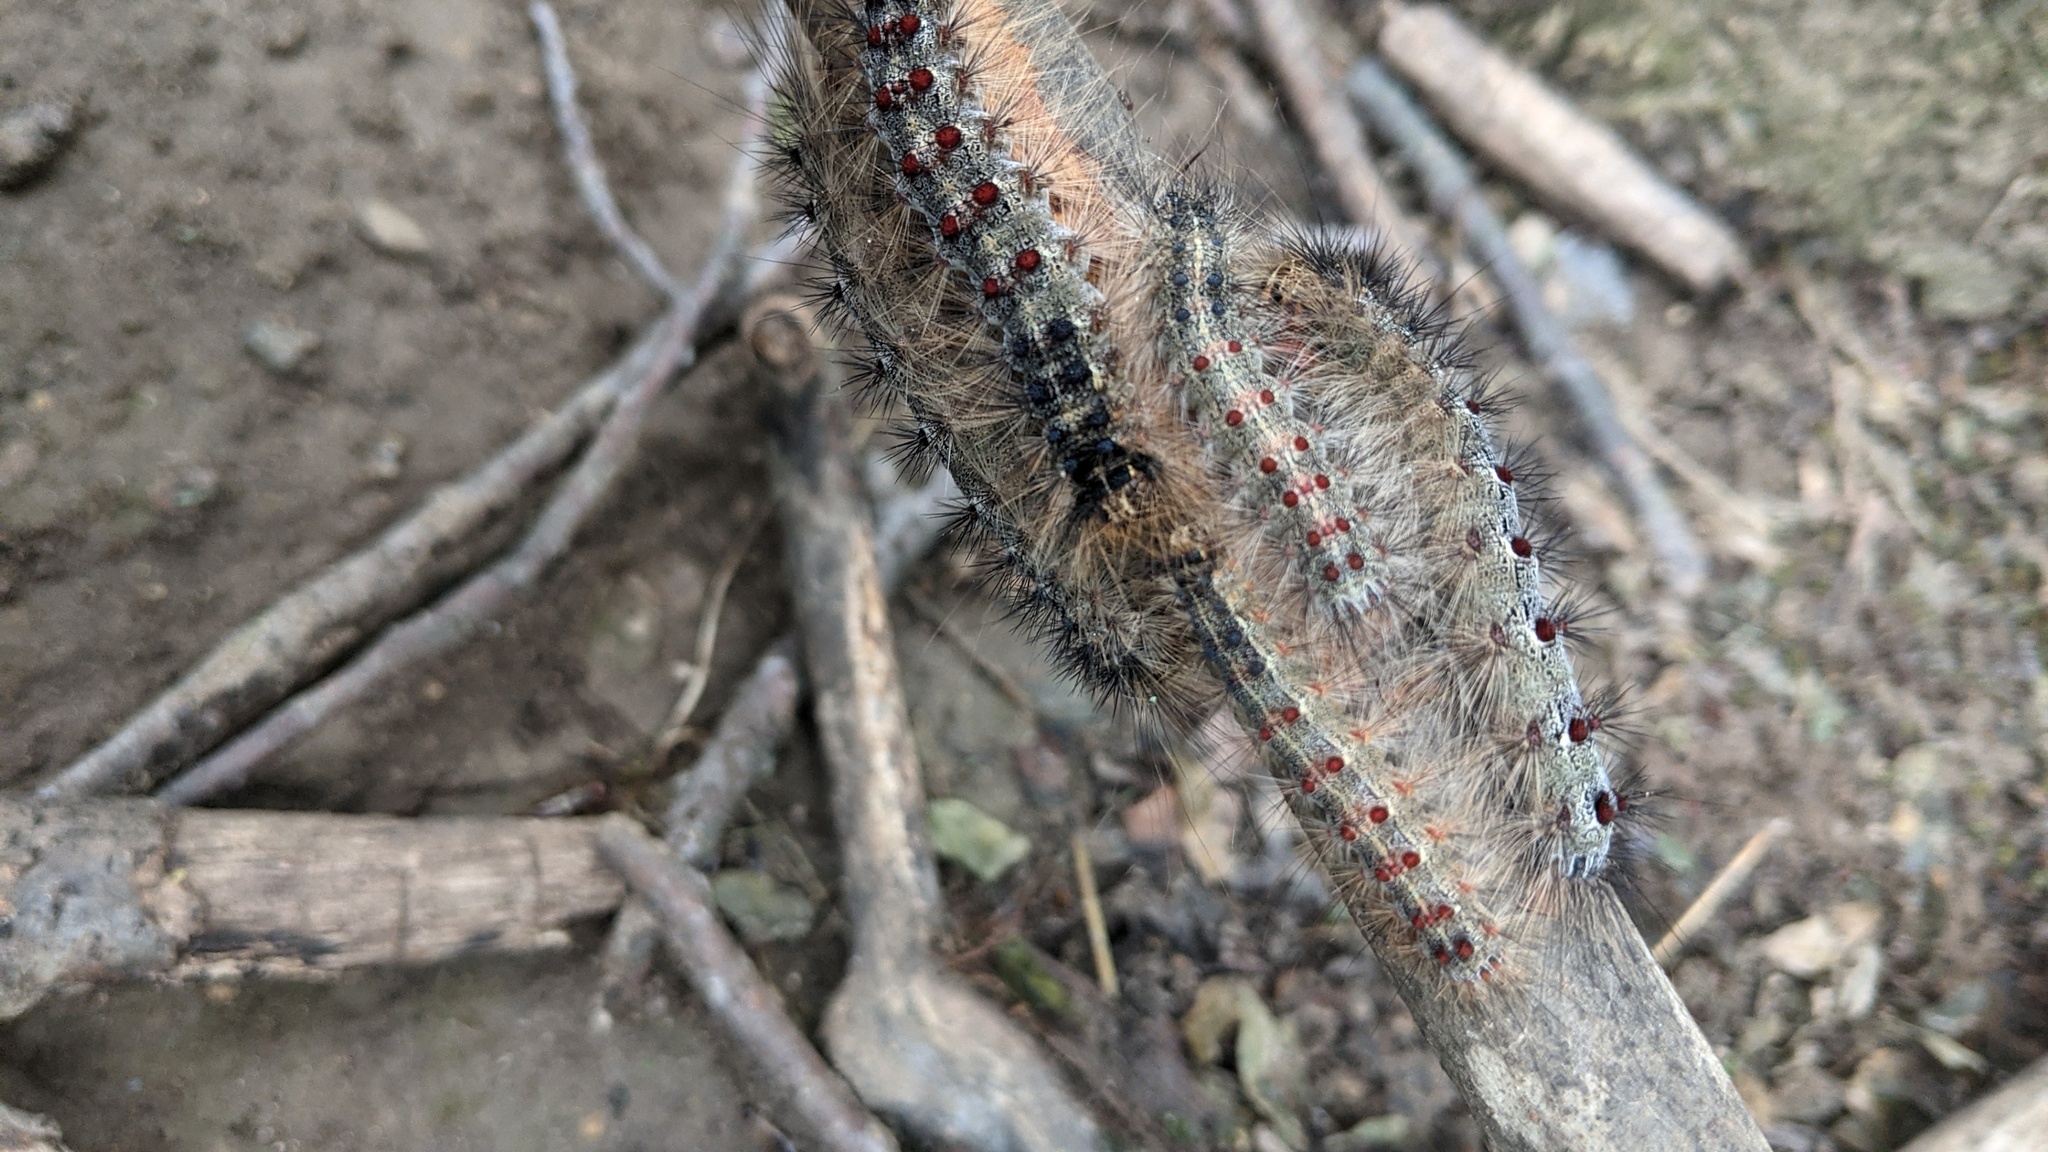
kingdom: Animalia
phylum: Arthropoda
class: Insecta
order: Lepidoptera
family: Erebidae
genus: Lymantria
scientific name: Lymantria dispar
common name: Gypsy moth
